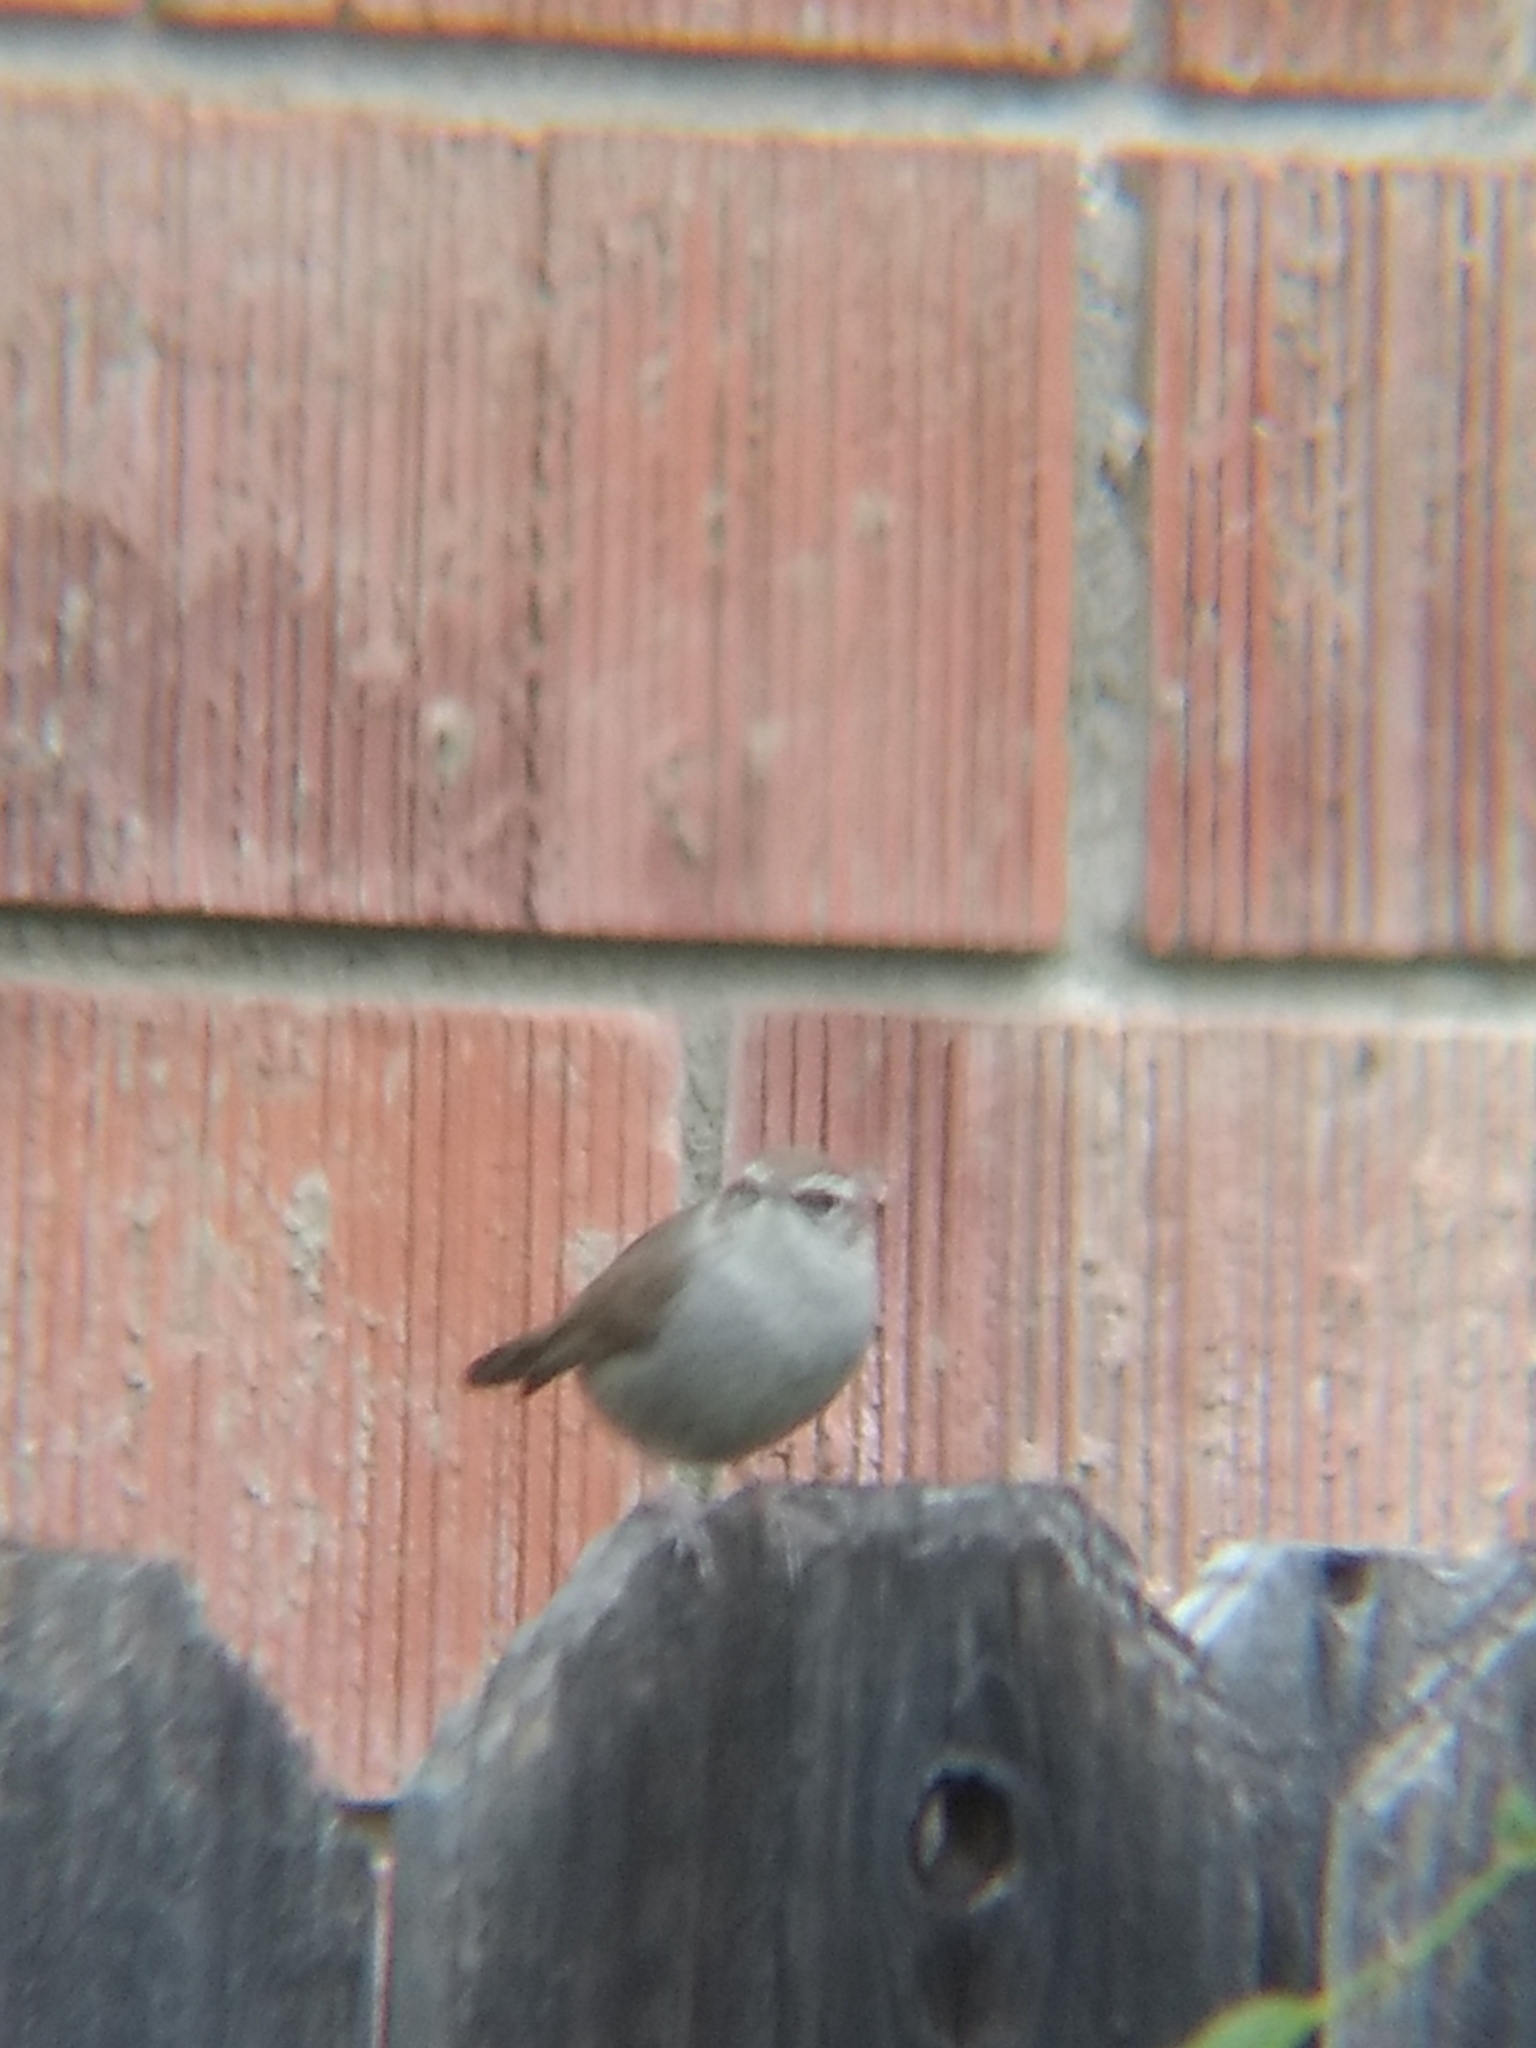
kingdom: Animalia
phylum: Chordata
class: Aves
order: Passeriformes
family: Troglodytidae
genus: Thryomanes
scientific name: Thryomanes bewickii
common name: Bewick's wren
